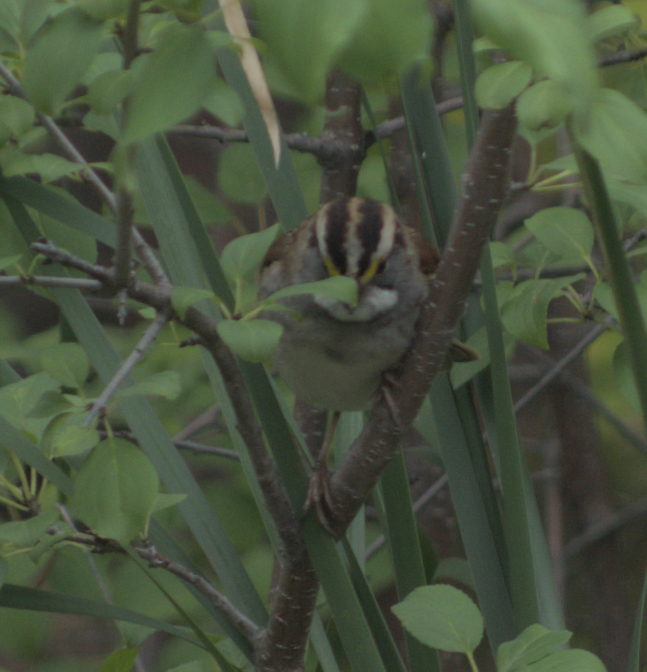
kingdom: Animalia
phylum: Chordata
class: Aves
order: Passeriformes
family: Passerellidae
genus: Zonotrichia
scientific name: Zonotrichia albicollis
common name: White-throated sparrow
